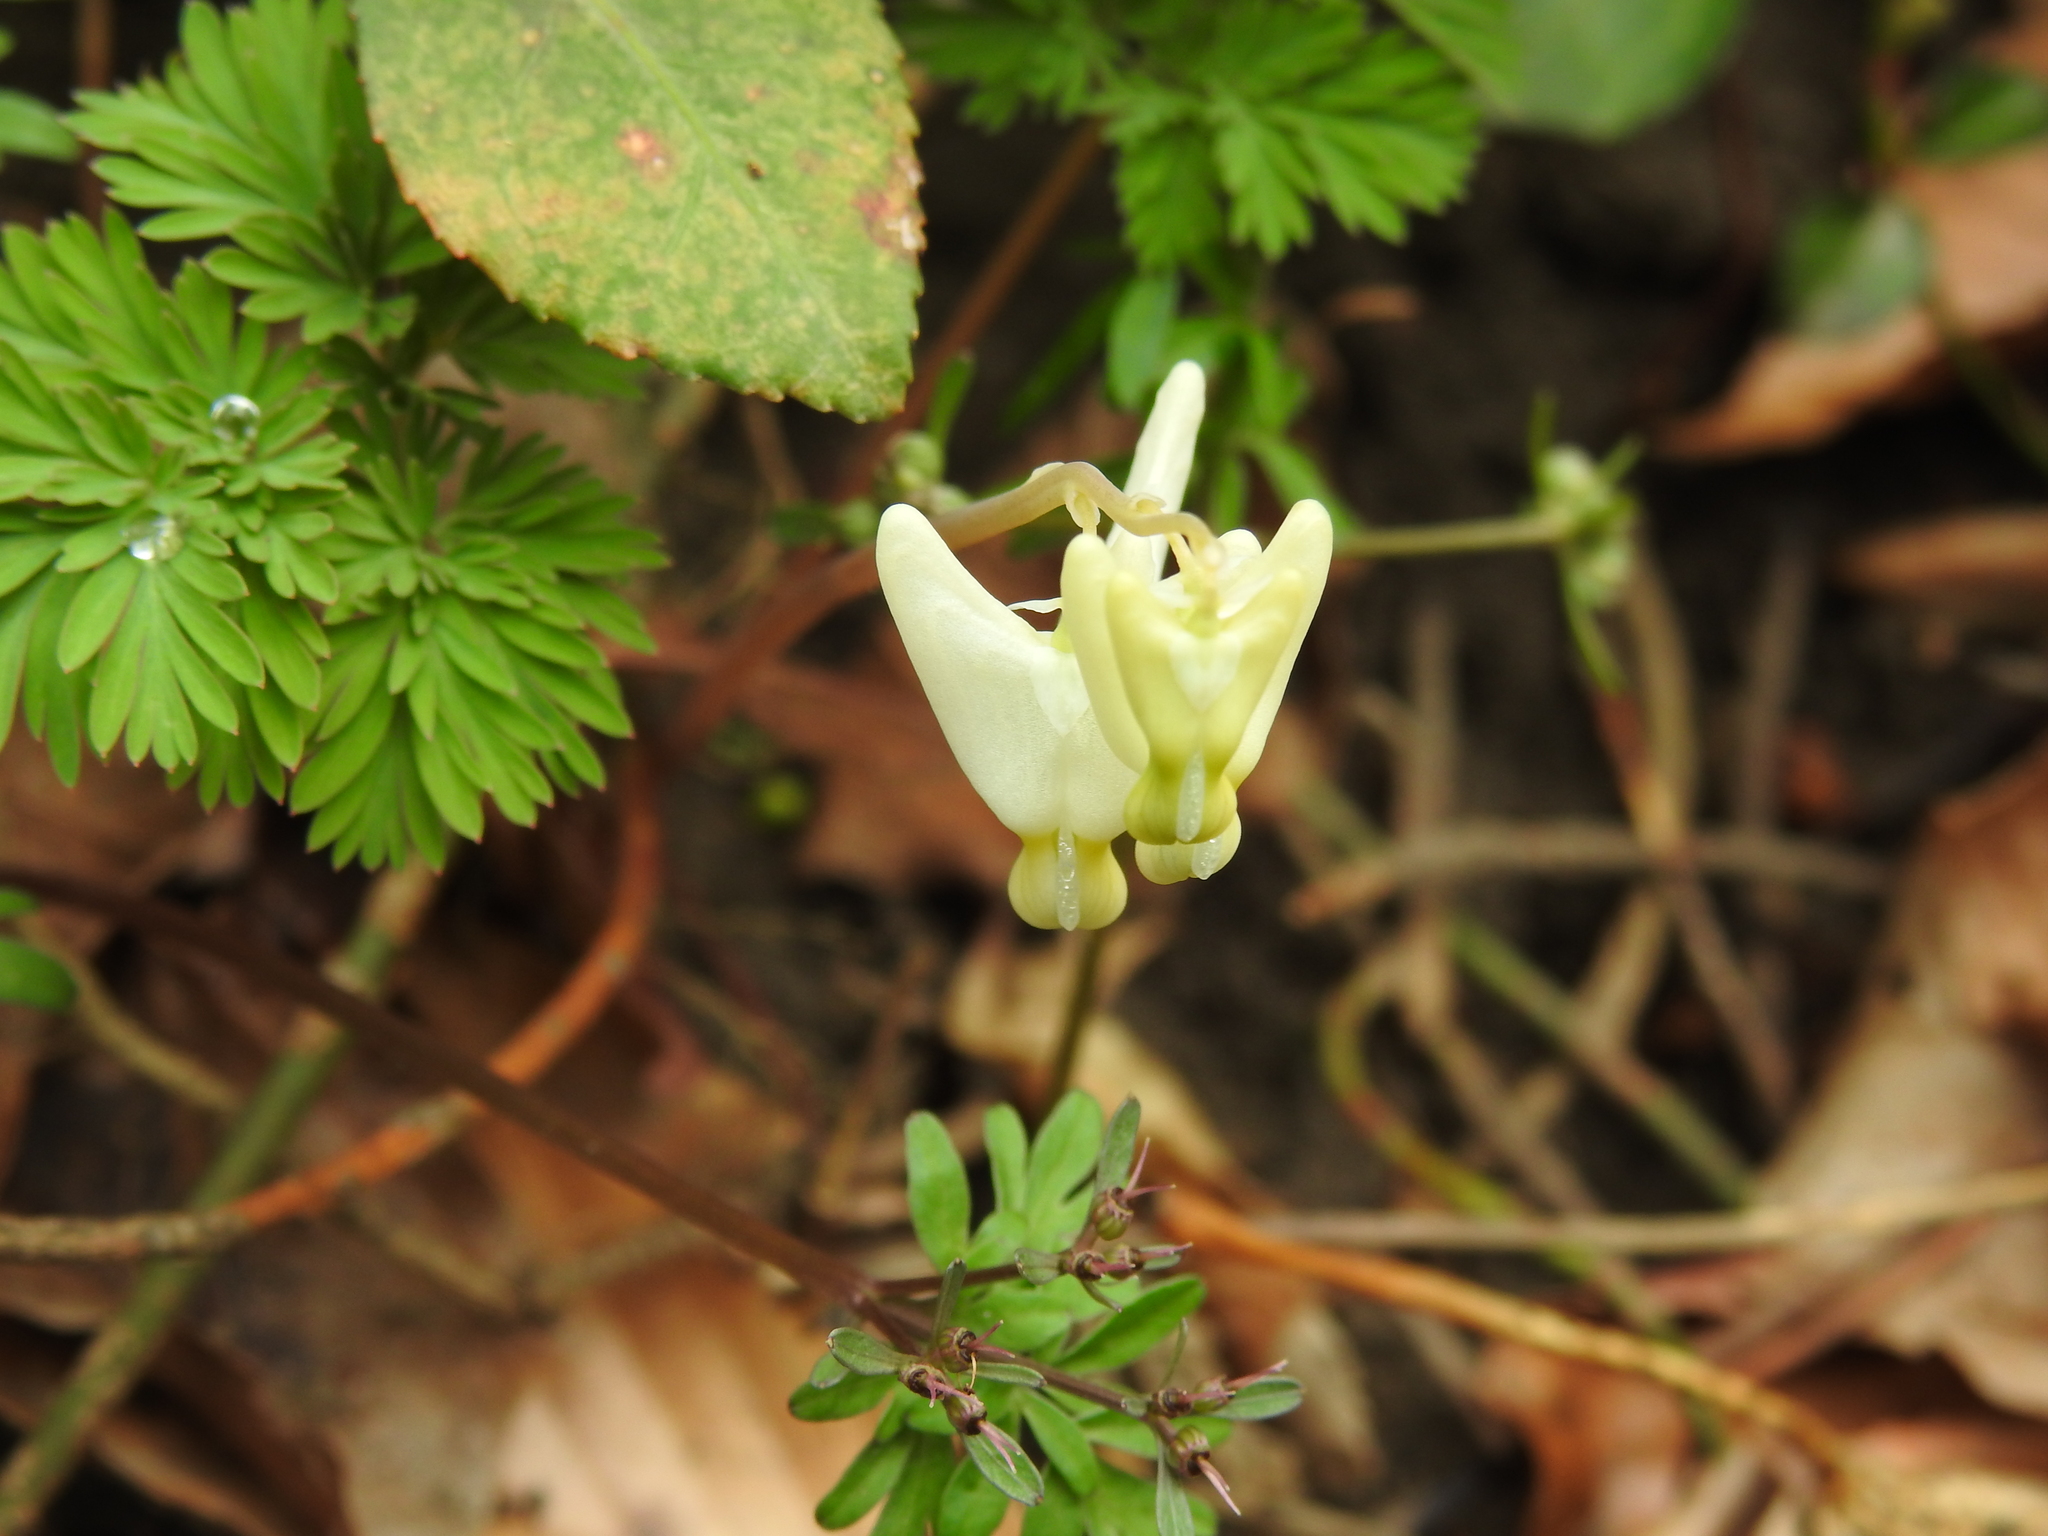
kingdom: Plantae
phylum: Tracheophyta
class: Magnoliopsida
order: Ranunculales
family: Papaveraceae
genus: Dicentra
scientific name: Dicentra cucullaria
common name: Dutchman's breeches
